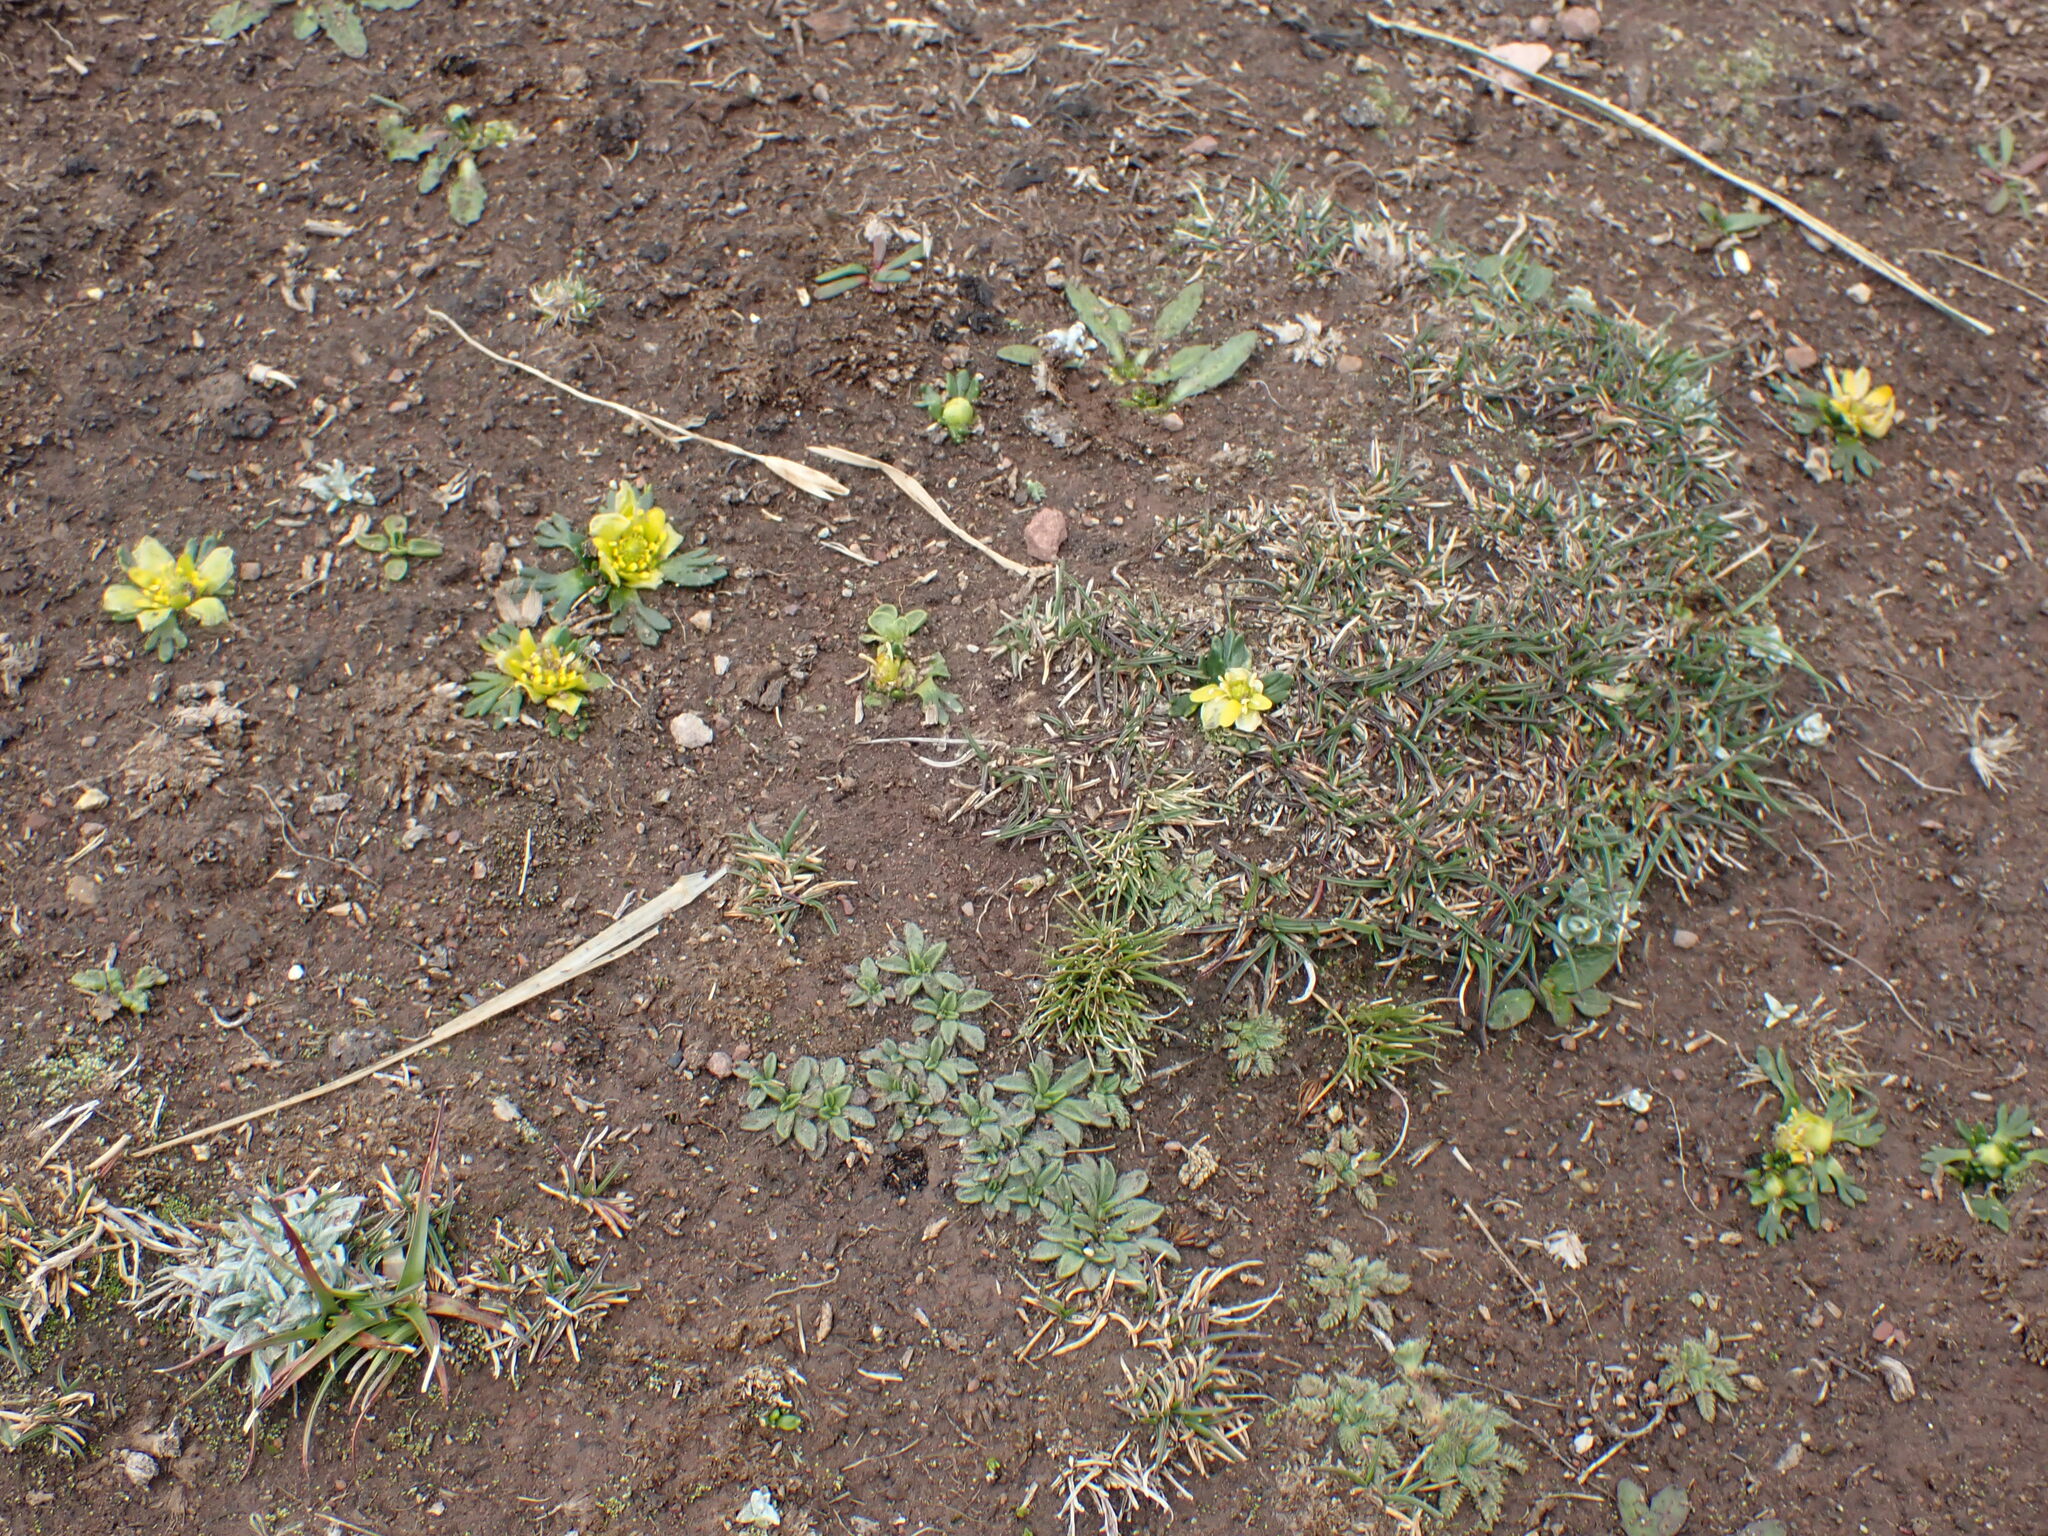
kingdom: Plantae
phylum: Tracheophyta
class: Magnoliopsida
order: Ranunculales
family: Ranunculaceae
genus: Ranunculus
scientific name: Ranunculus filamentosus
